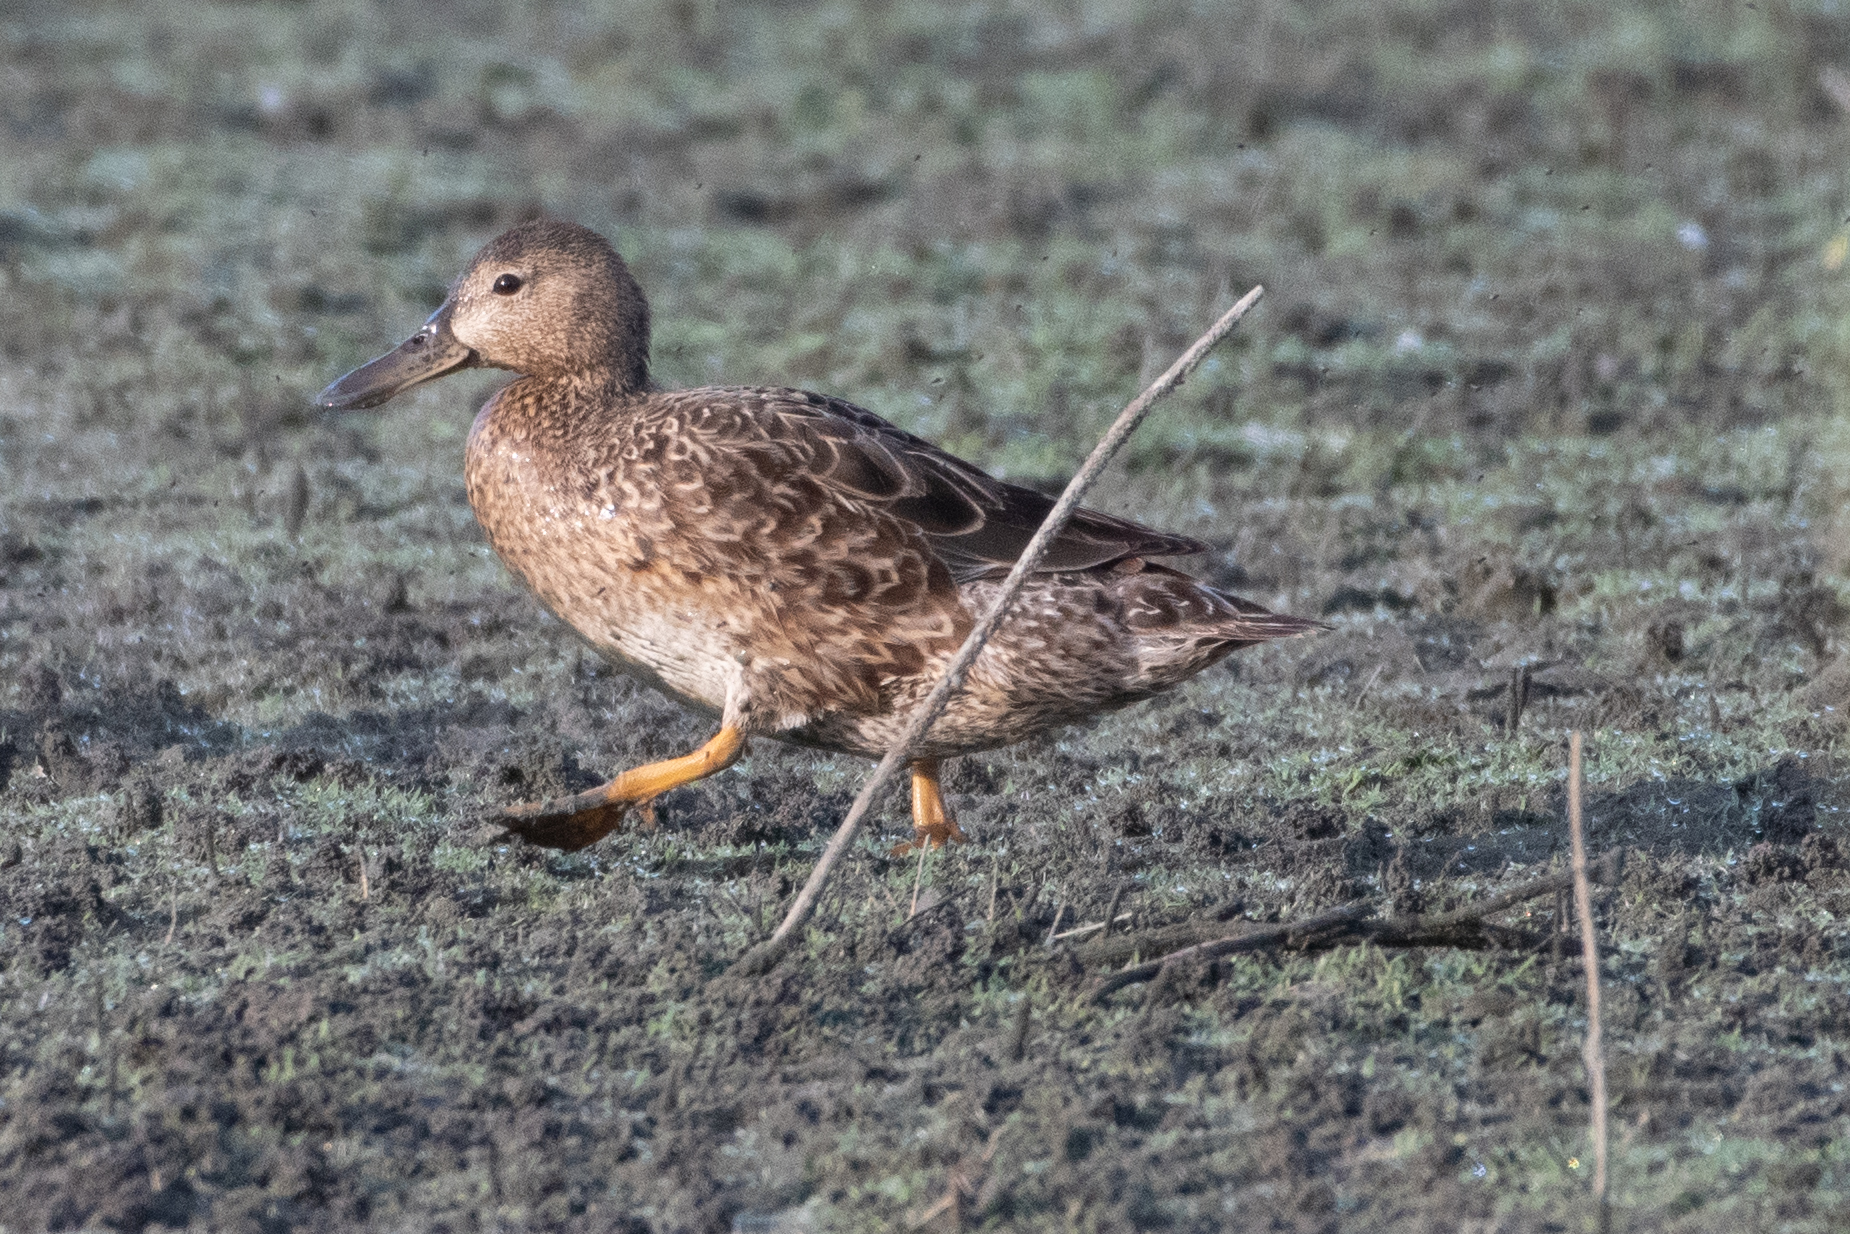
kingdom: Animalia
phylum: Chordata
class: Aves
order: Anseriformes
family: Anatidae
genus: Spatula
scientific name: Spatula cyanoptera
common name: Cinnamon teal
